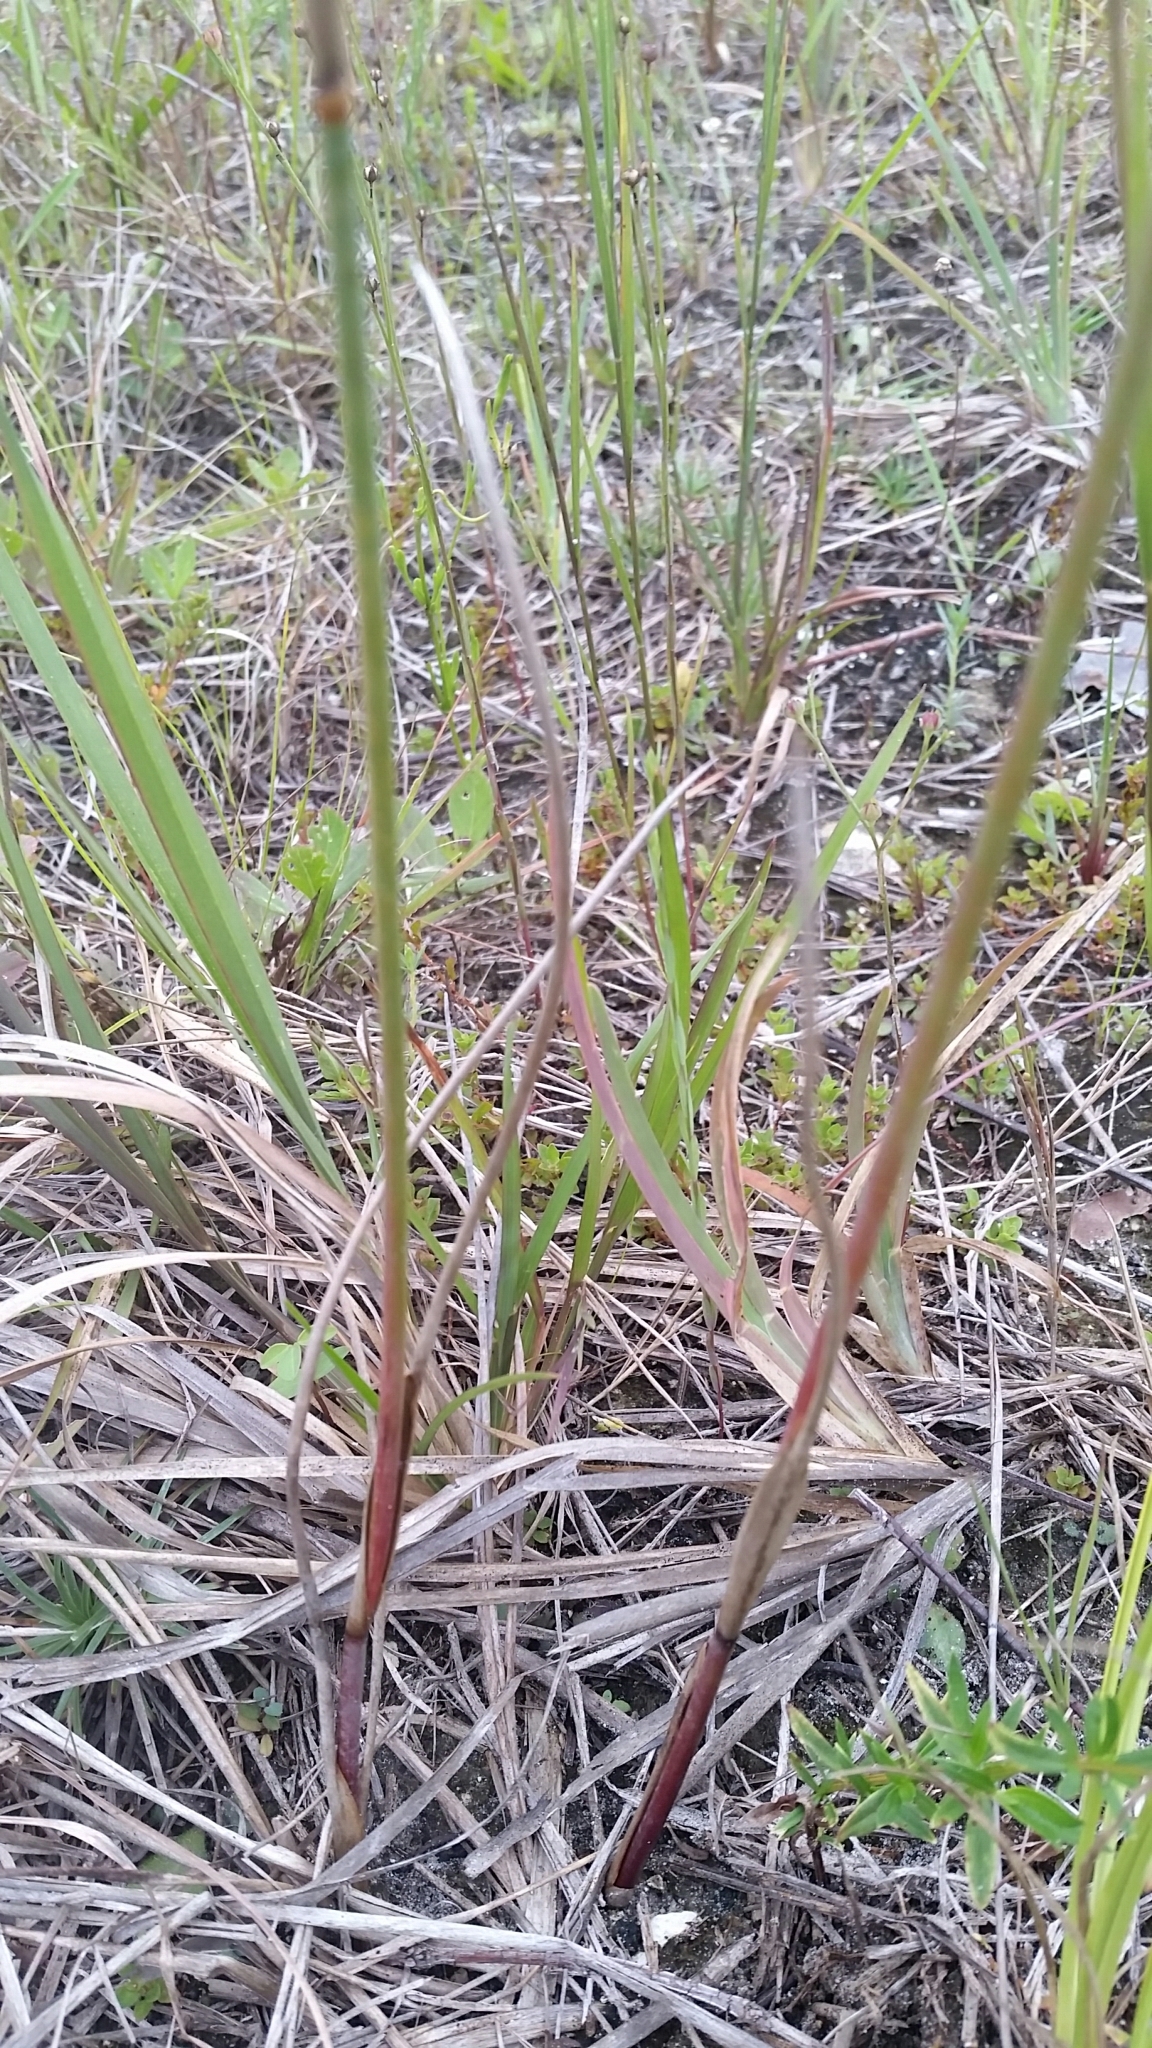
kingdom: Plantae
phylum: Tracheophyta
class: Liliopsida
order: Poales
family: Juncaceae
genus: Juncus
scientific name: Juncus megacephalus
